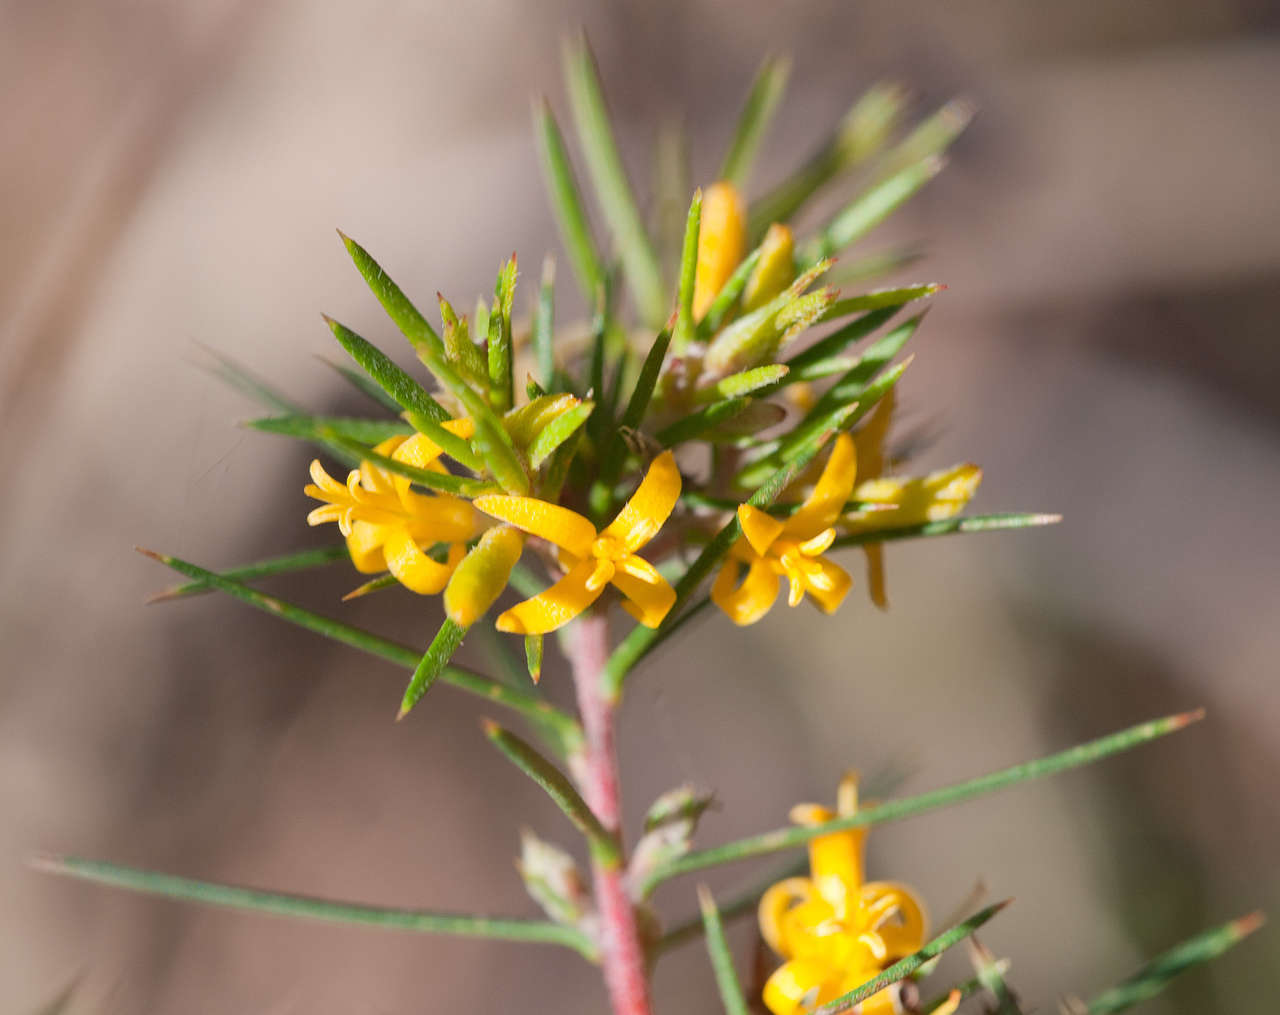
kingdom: Plantae
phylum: Tracheophyta
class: Magnoliopsida
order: Proteales
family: Proteaceae
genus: Persoonia
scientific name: Persoonia juniperina
